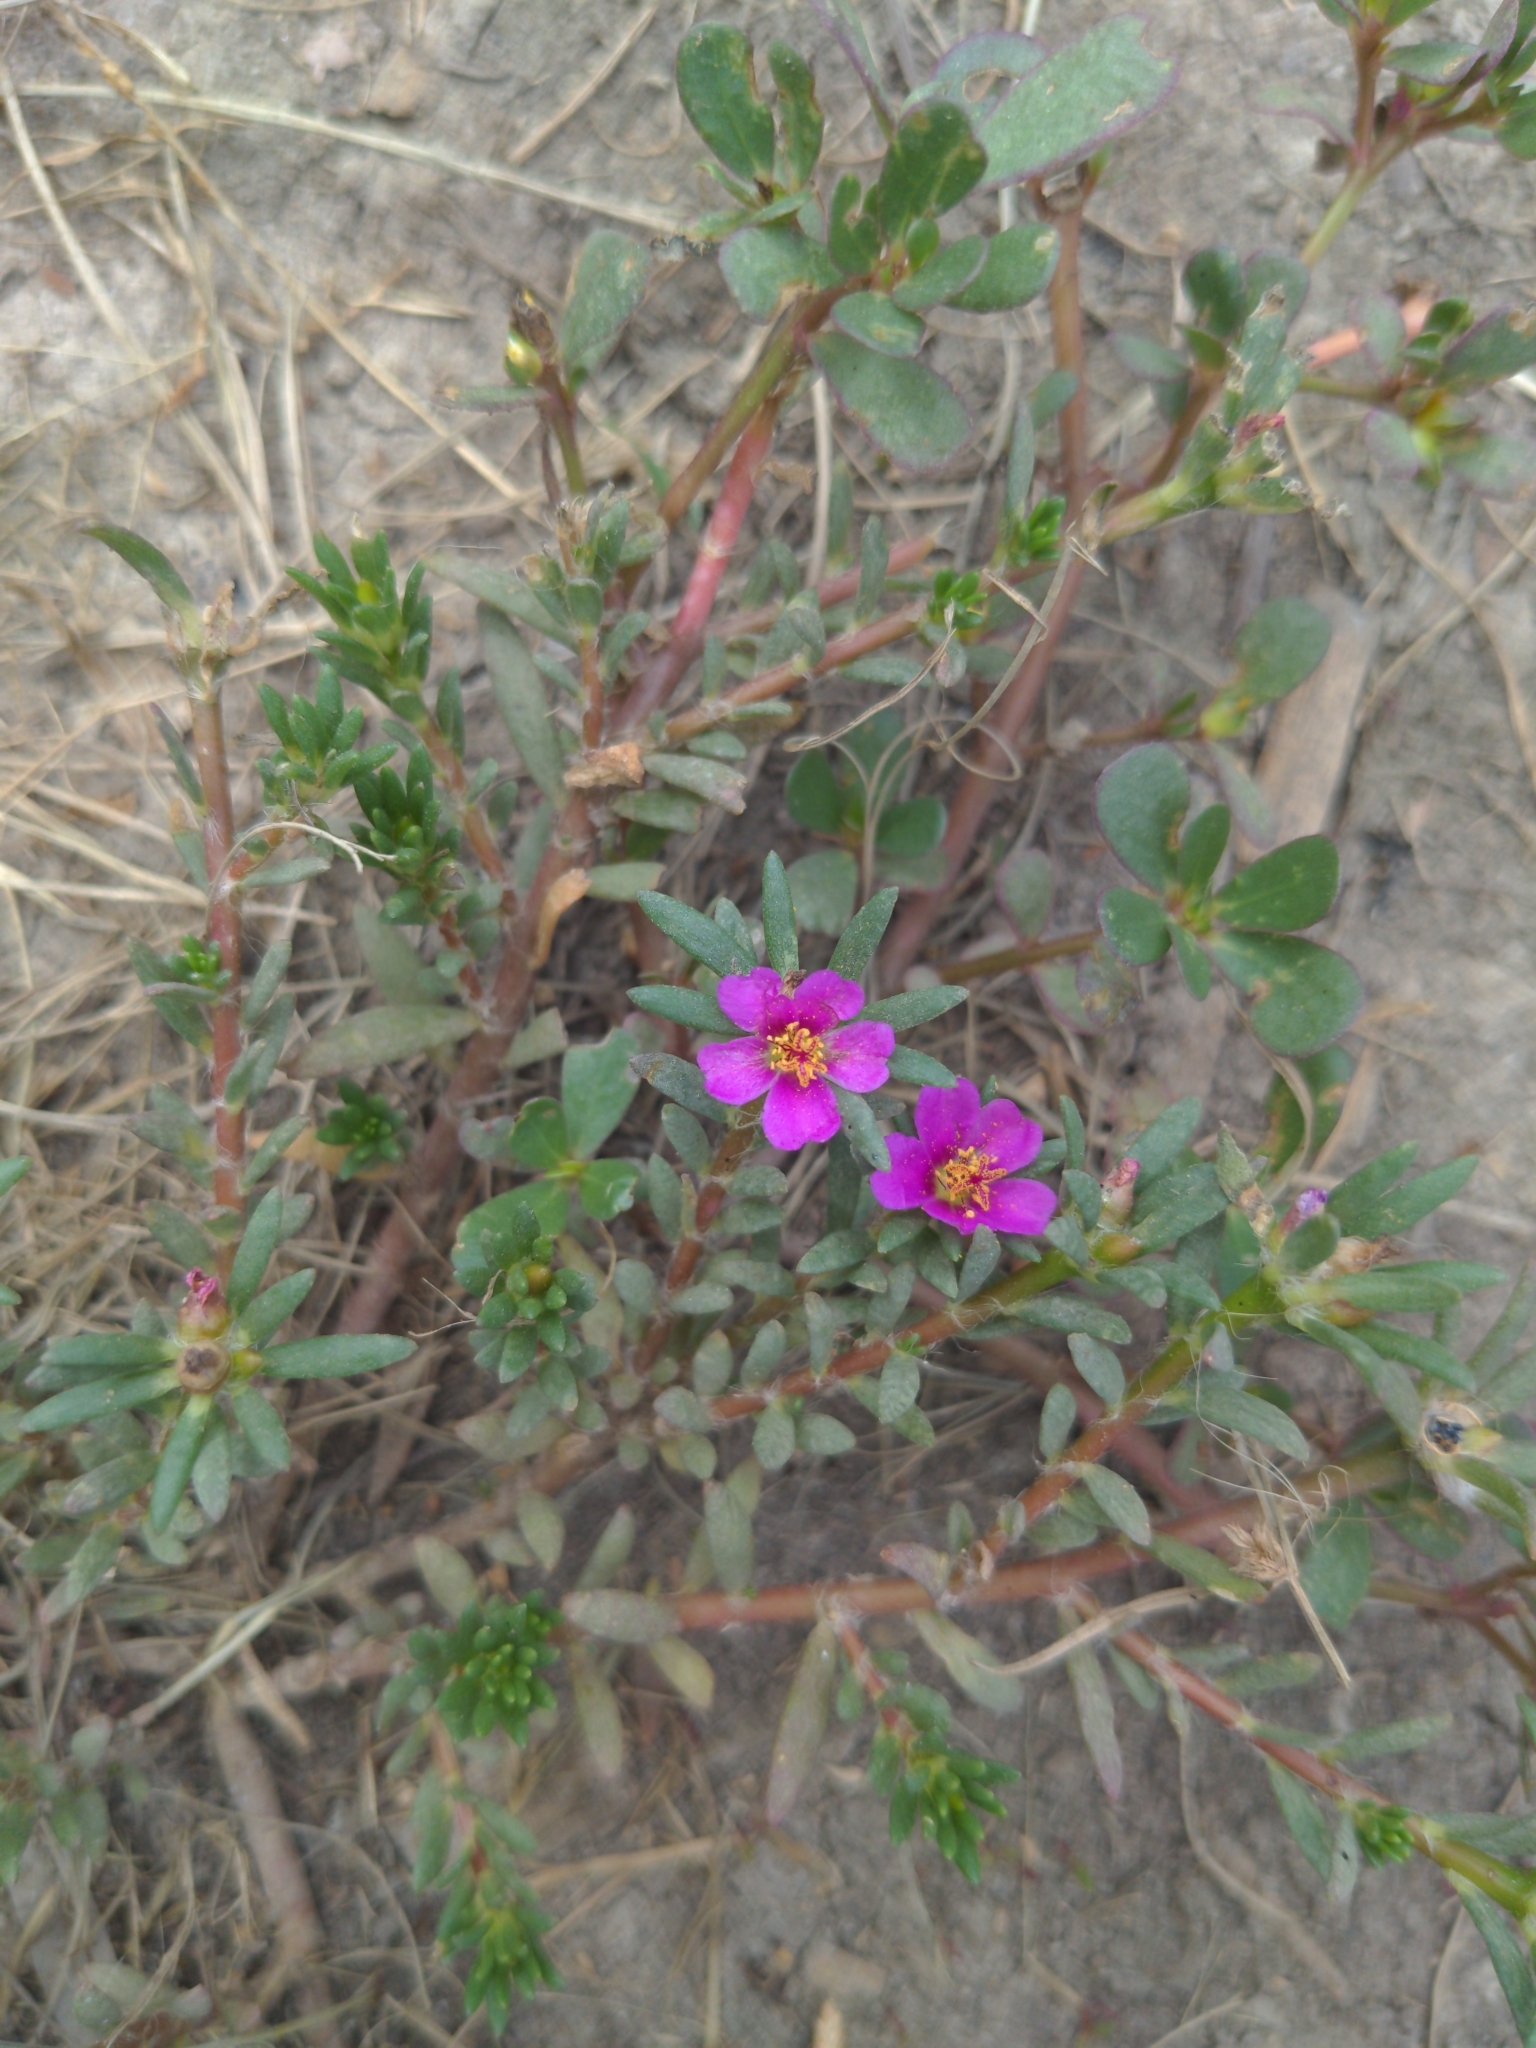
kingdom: Plantae
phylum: Tracheophyta
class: Magnoliopsida
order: Caryophyllales
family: Portulacaceae
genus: Portulaca
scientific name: Portulaca pilosa
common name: Kiss me quick
